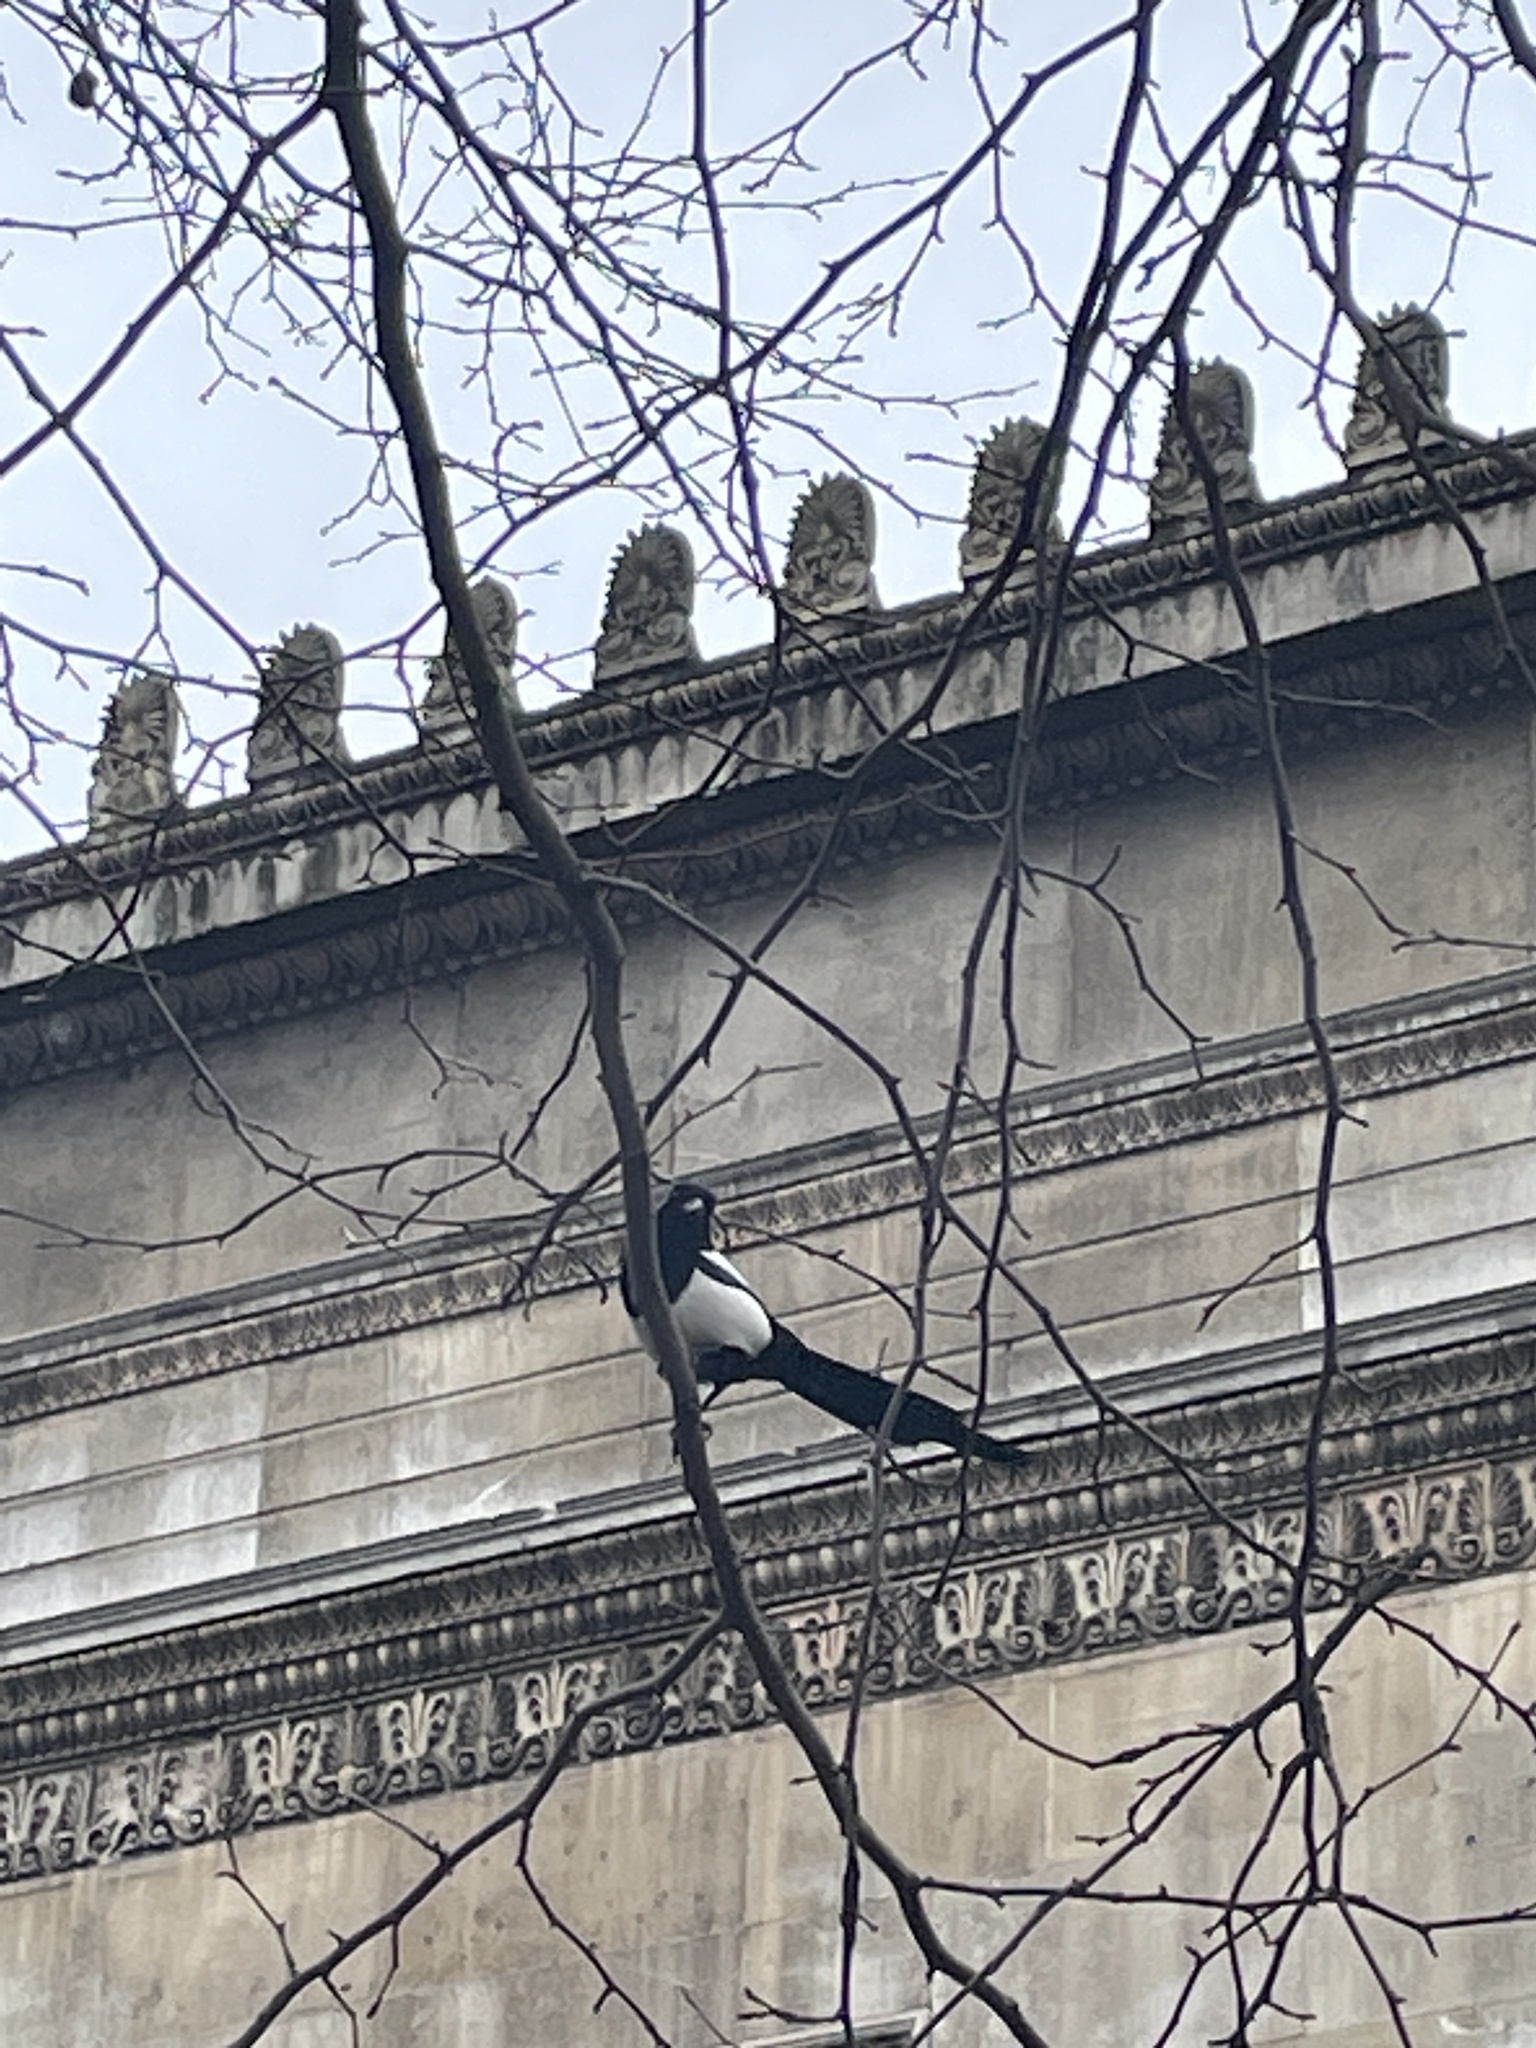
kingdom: Animalia
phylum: Chordata
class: Aves
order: Passeriformes
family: Corvidae
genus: Pica
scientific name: Pica pica
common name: Eurasian magpie
